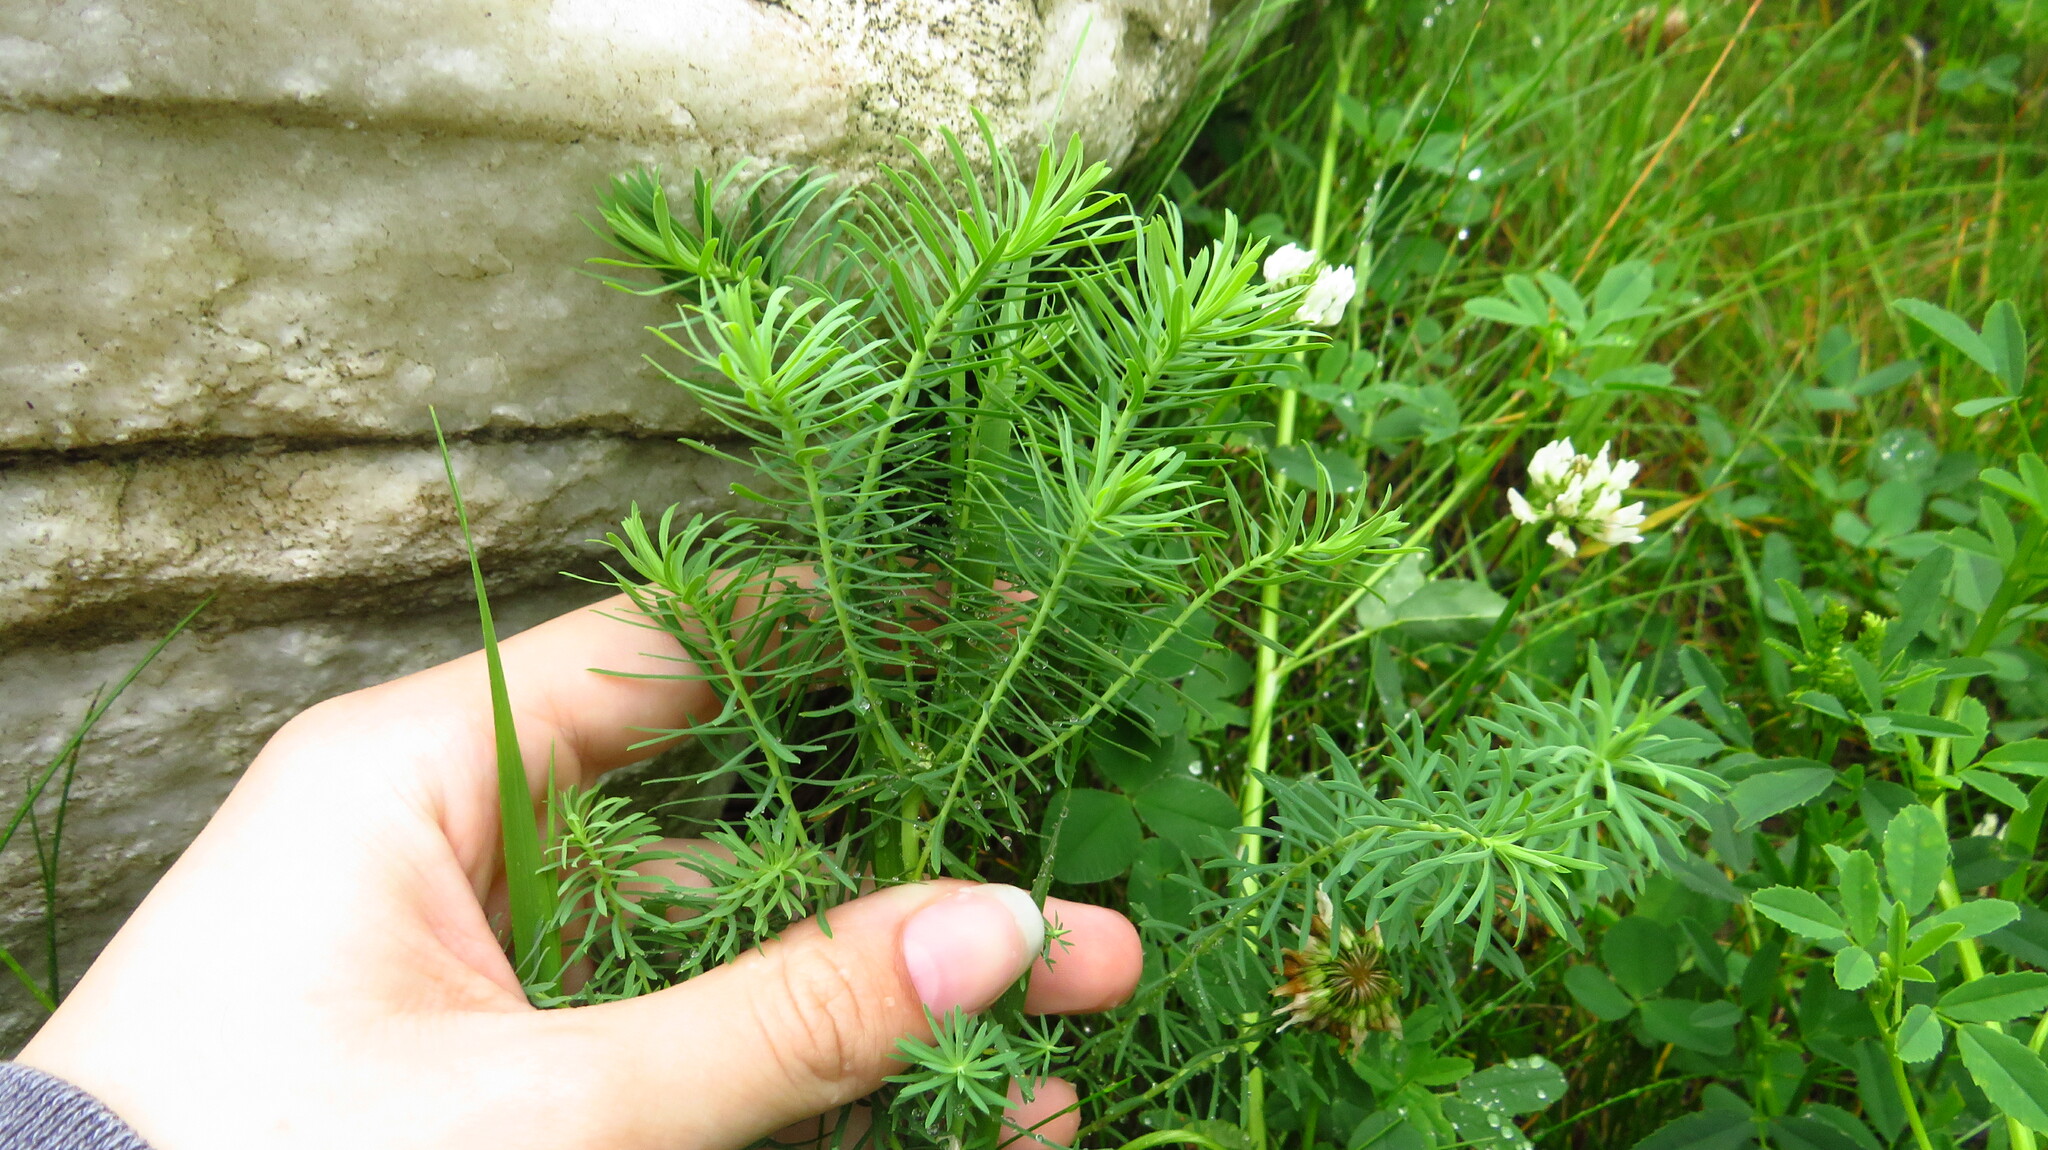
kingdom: Plantae
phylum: Tracheophyta
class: Magnoliopsida
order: Malpighiales
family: Euphorbiaceae
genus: Euphorbia
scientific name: Euphorbia cyparissias
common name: Cypress spurge
